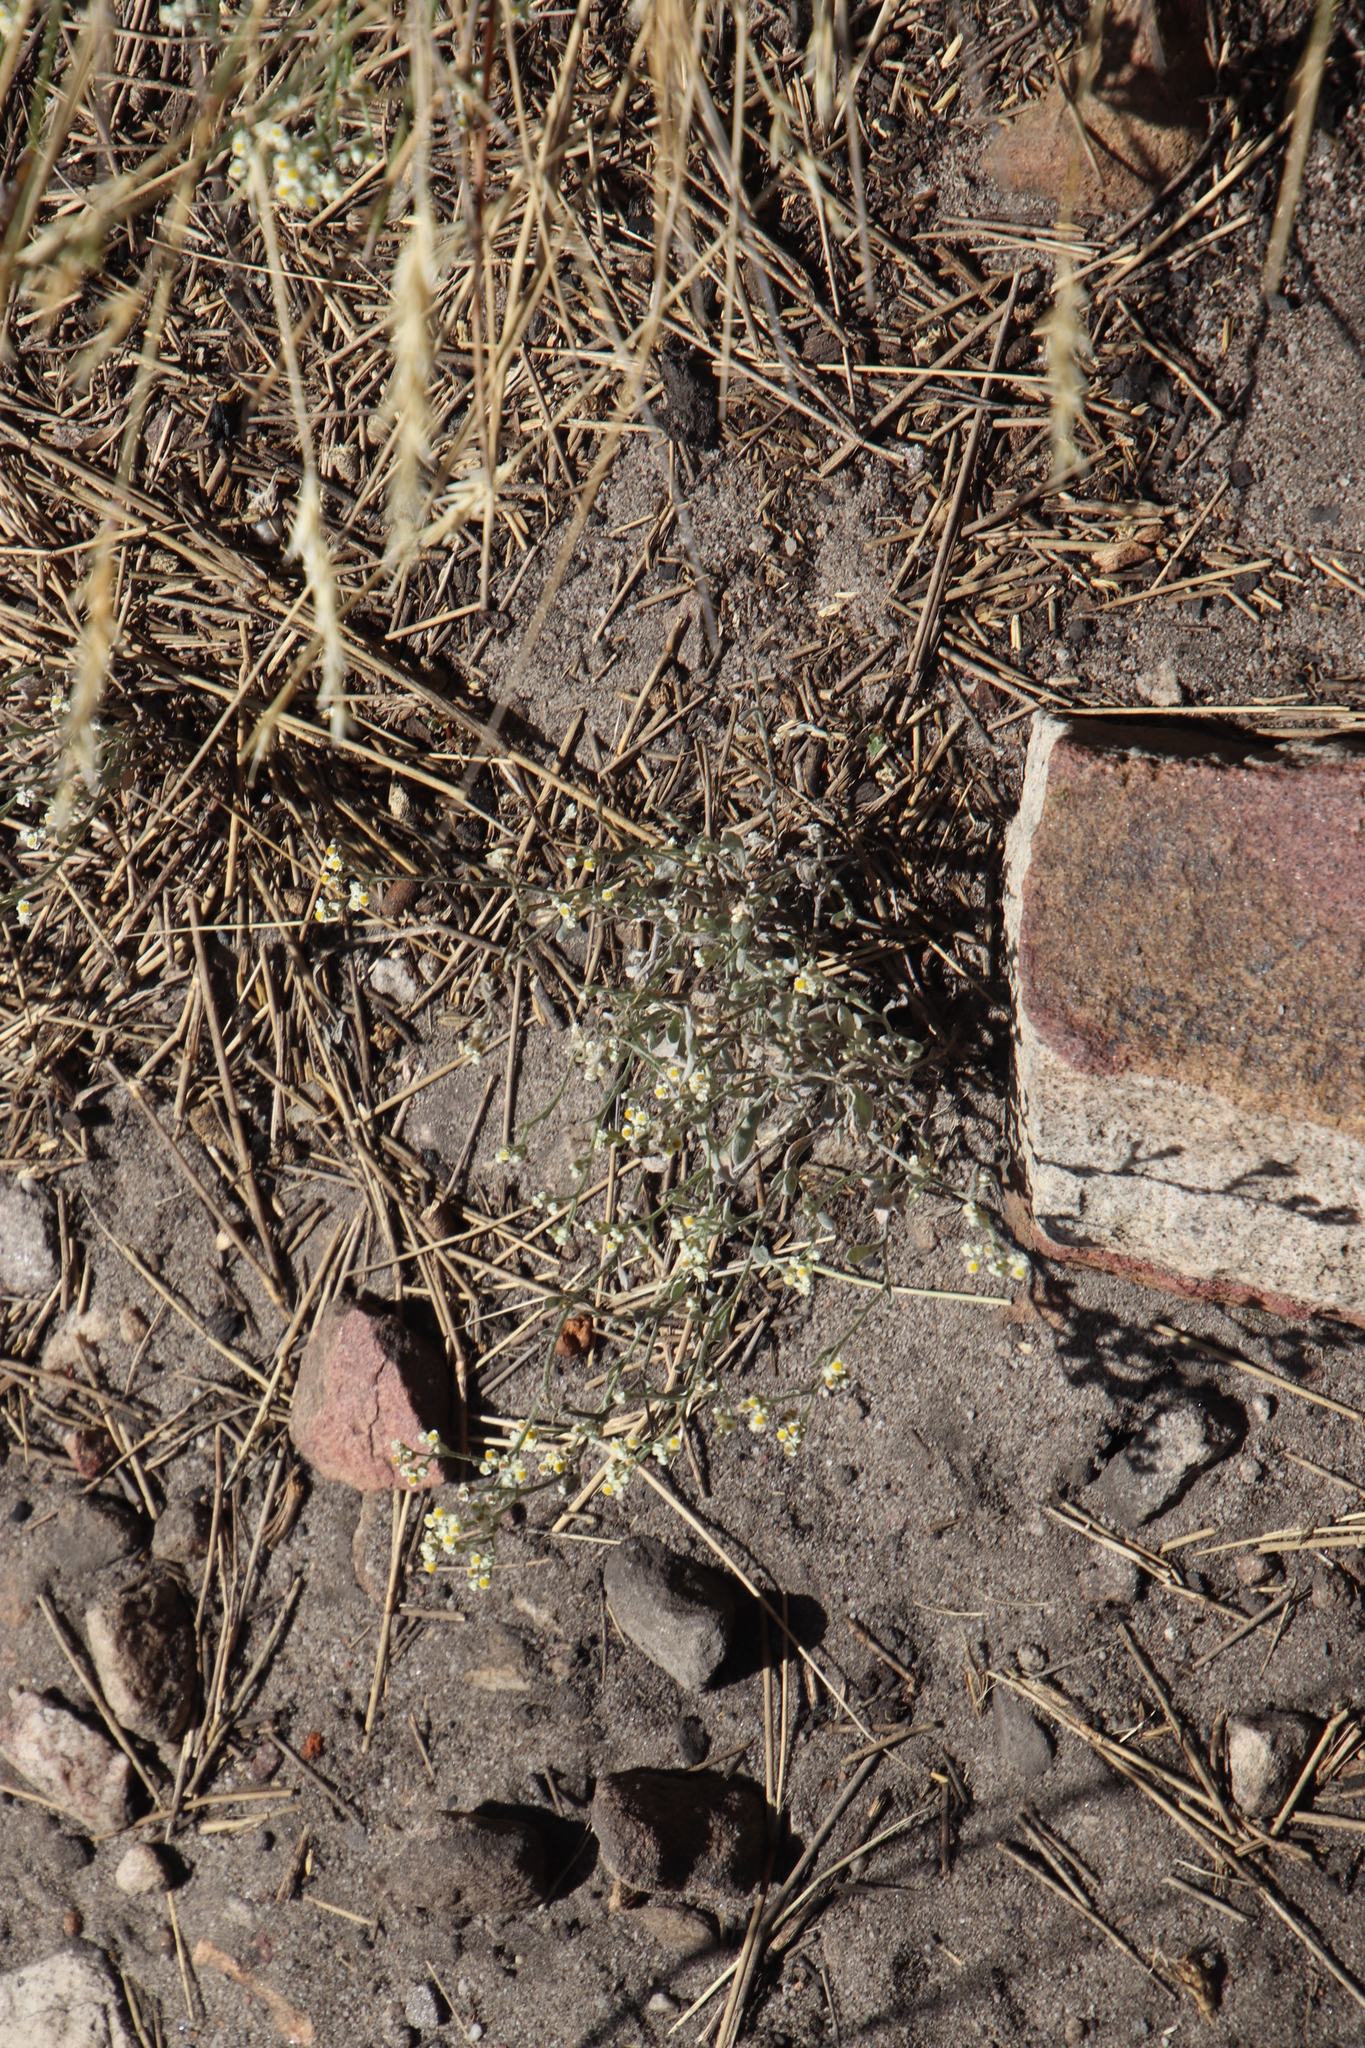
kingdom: Plantae
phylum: Tracheophyta
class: Magnoliopsida
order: Asterales
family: Asteraceae
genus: Helichrysum
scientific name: Helichrysum indicum
